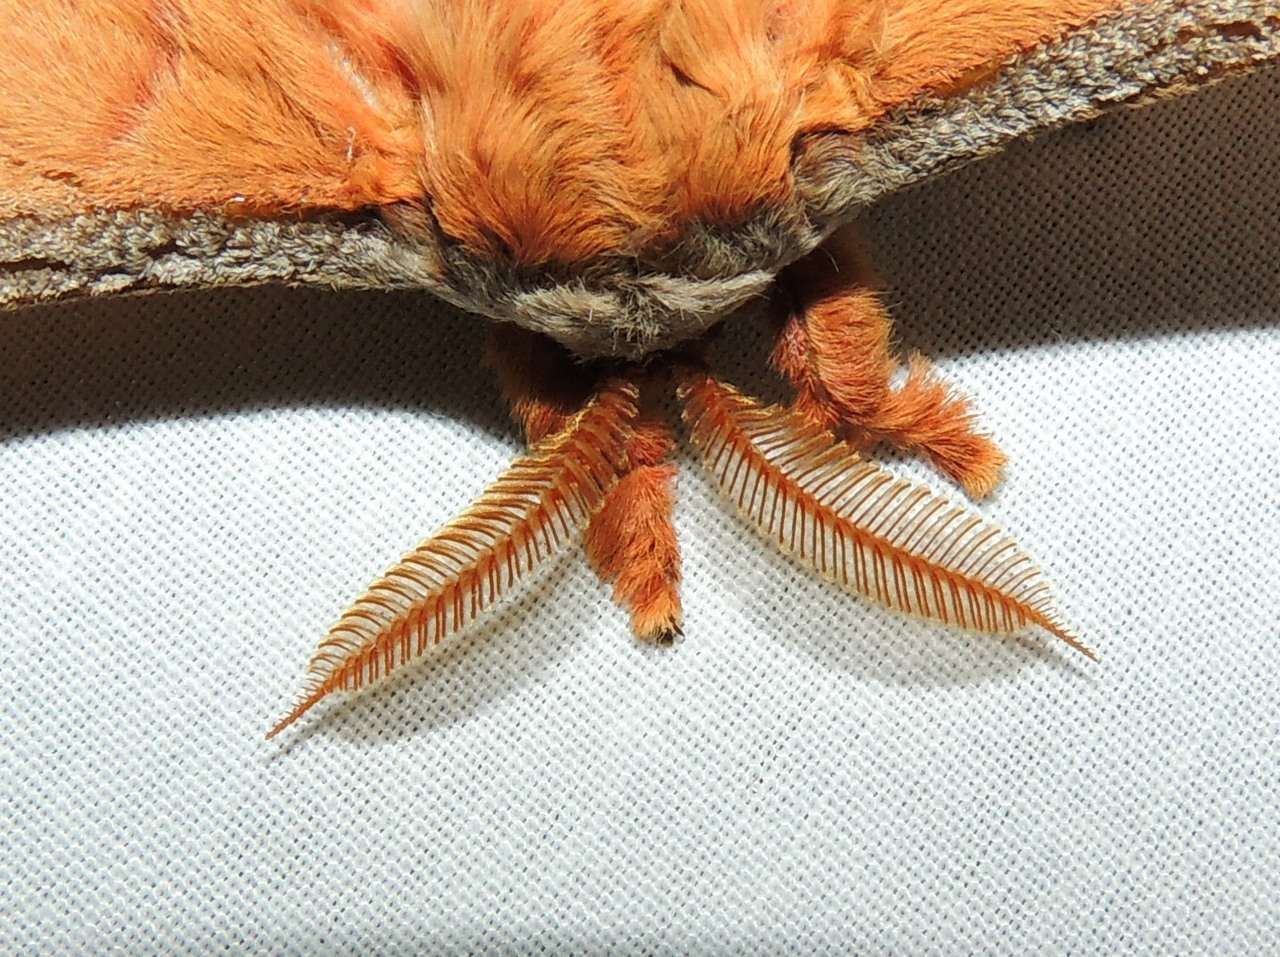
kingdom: Animalia
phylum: Arthropoda
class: Insecta
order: Lepidoptera
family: Saturniidae
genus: Opodiphthera
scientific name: Opodiphthera
